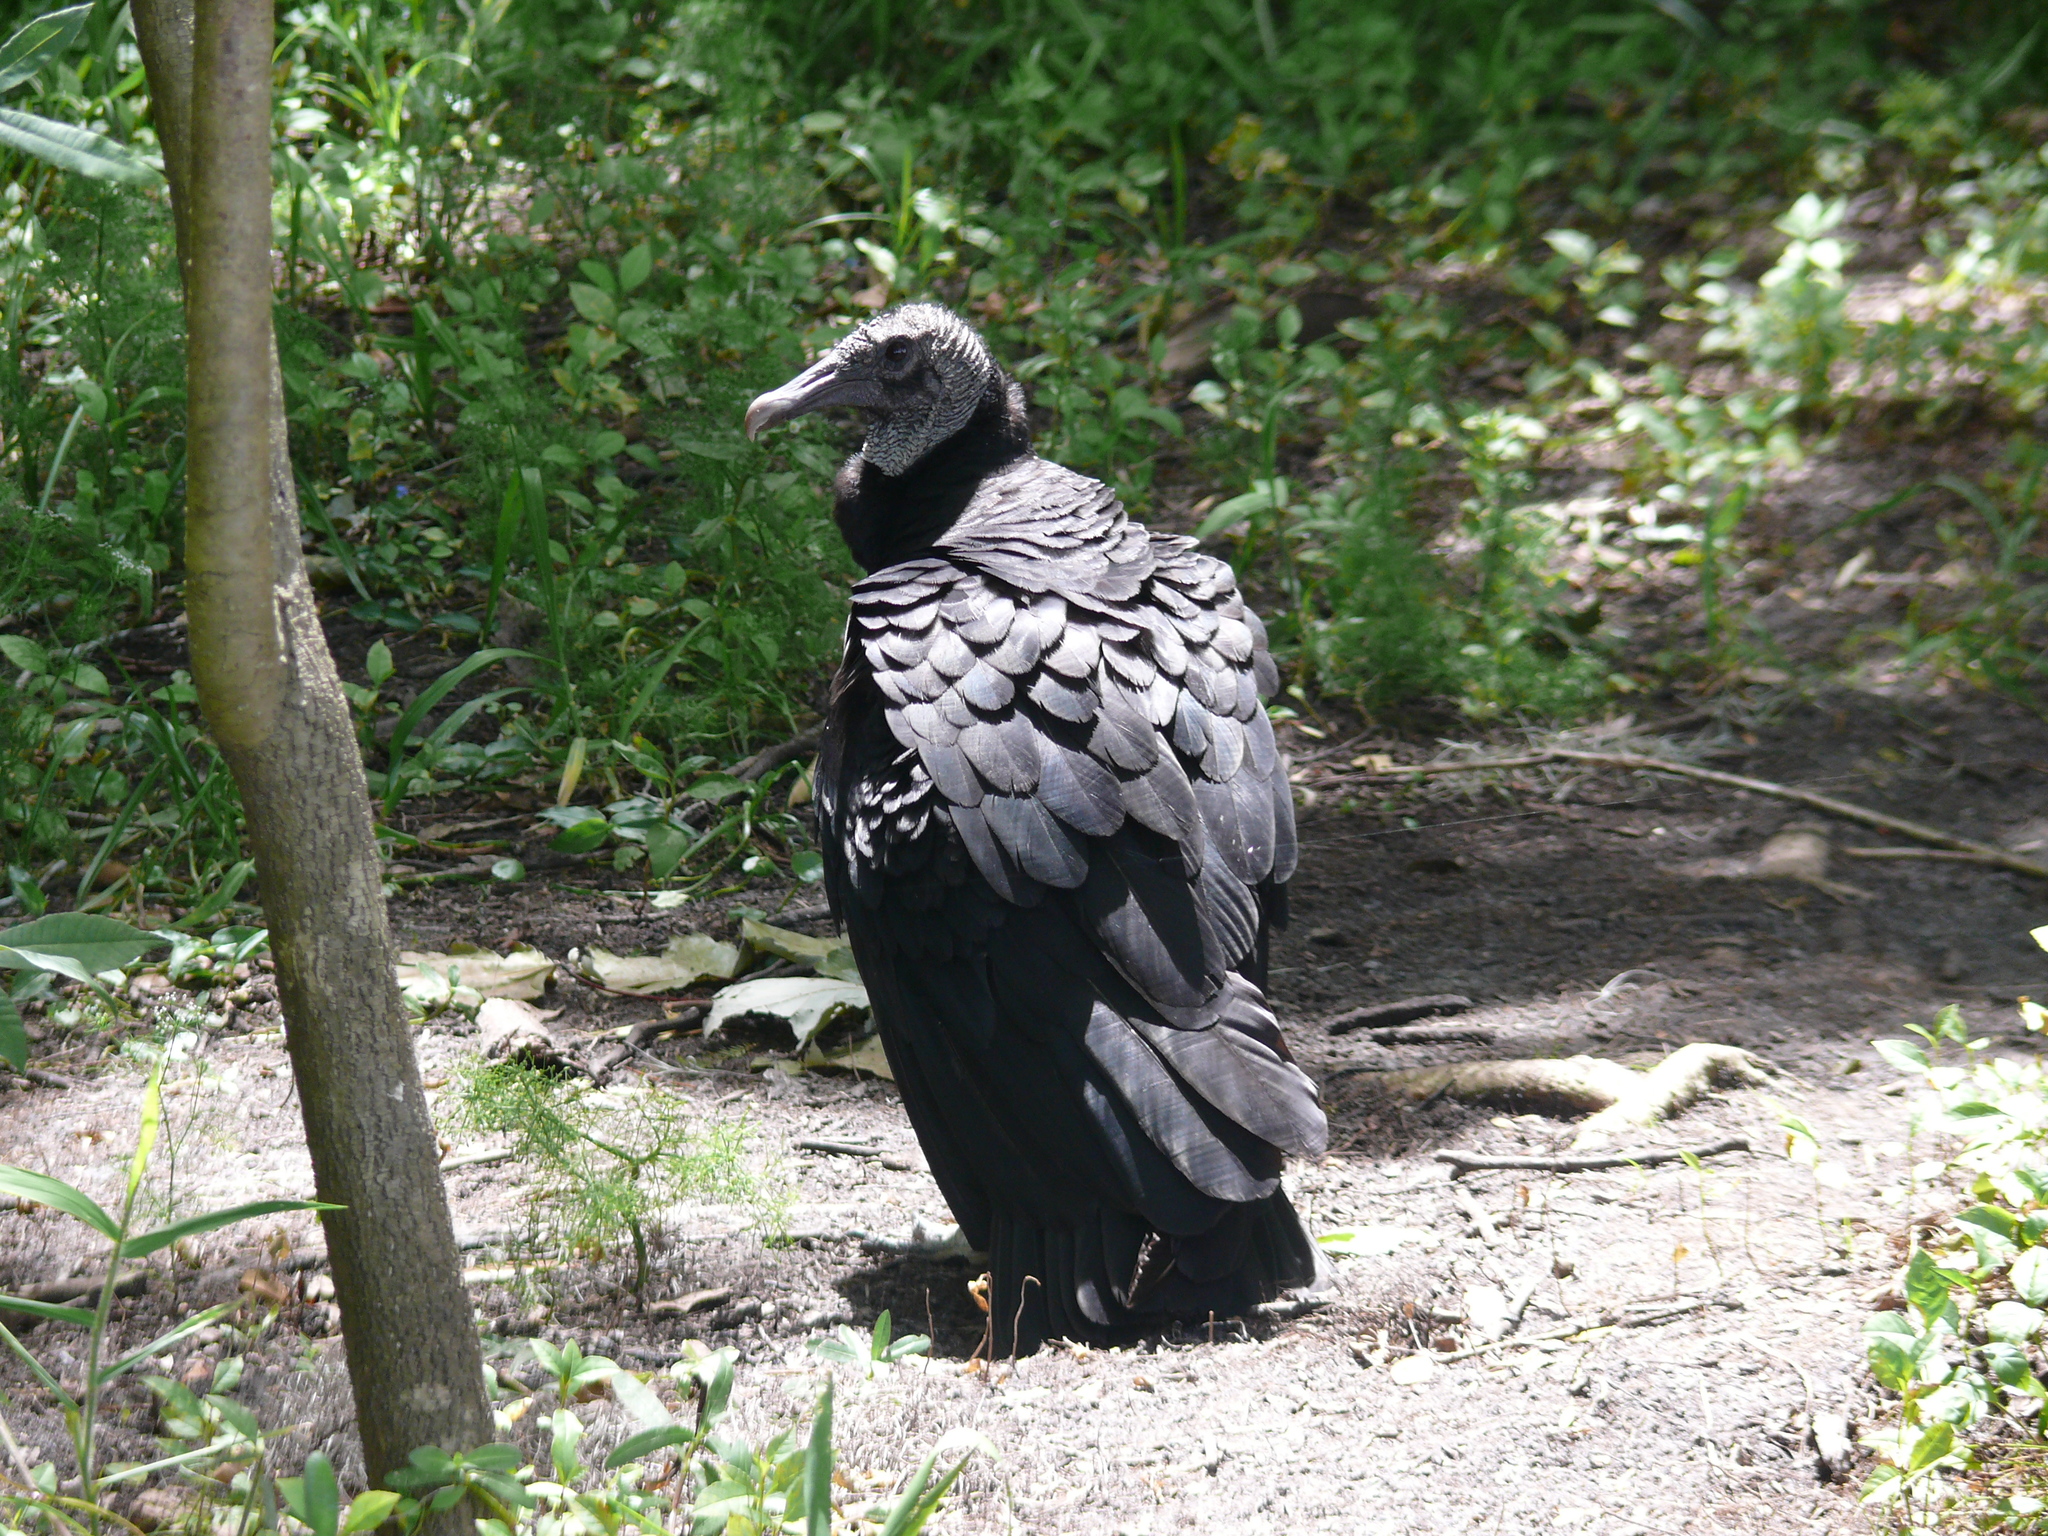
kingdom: Animalia
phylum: Chordata
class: Aves
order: Accipitriformes
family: Cathartidae
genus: Coragyps
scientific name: Coragyps atratus
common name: Black vulture
